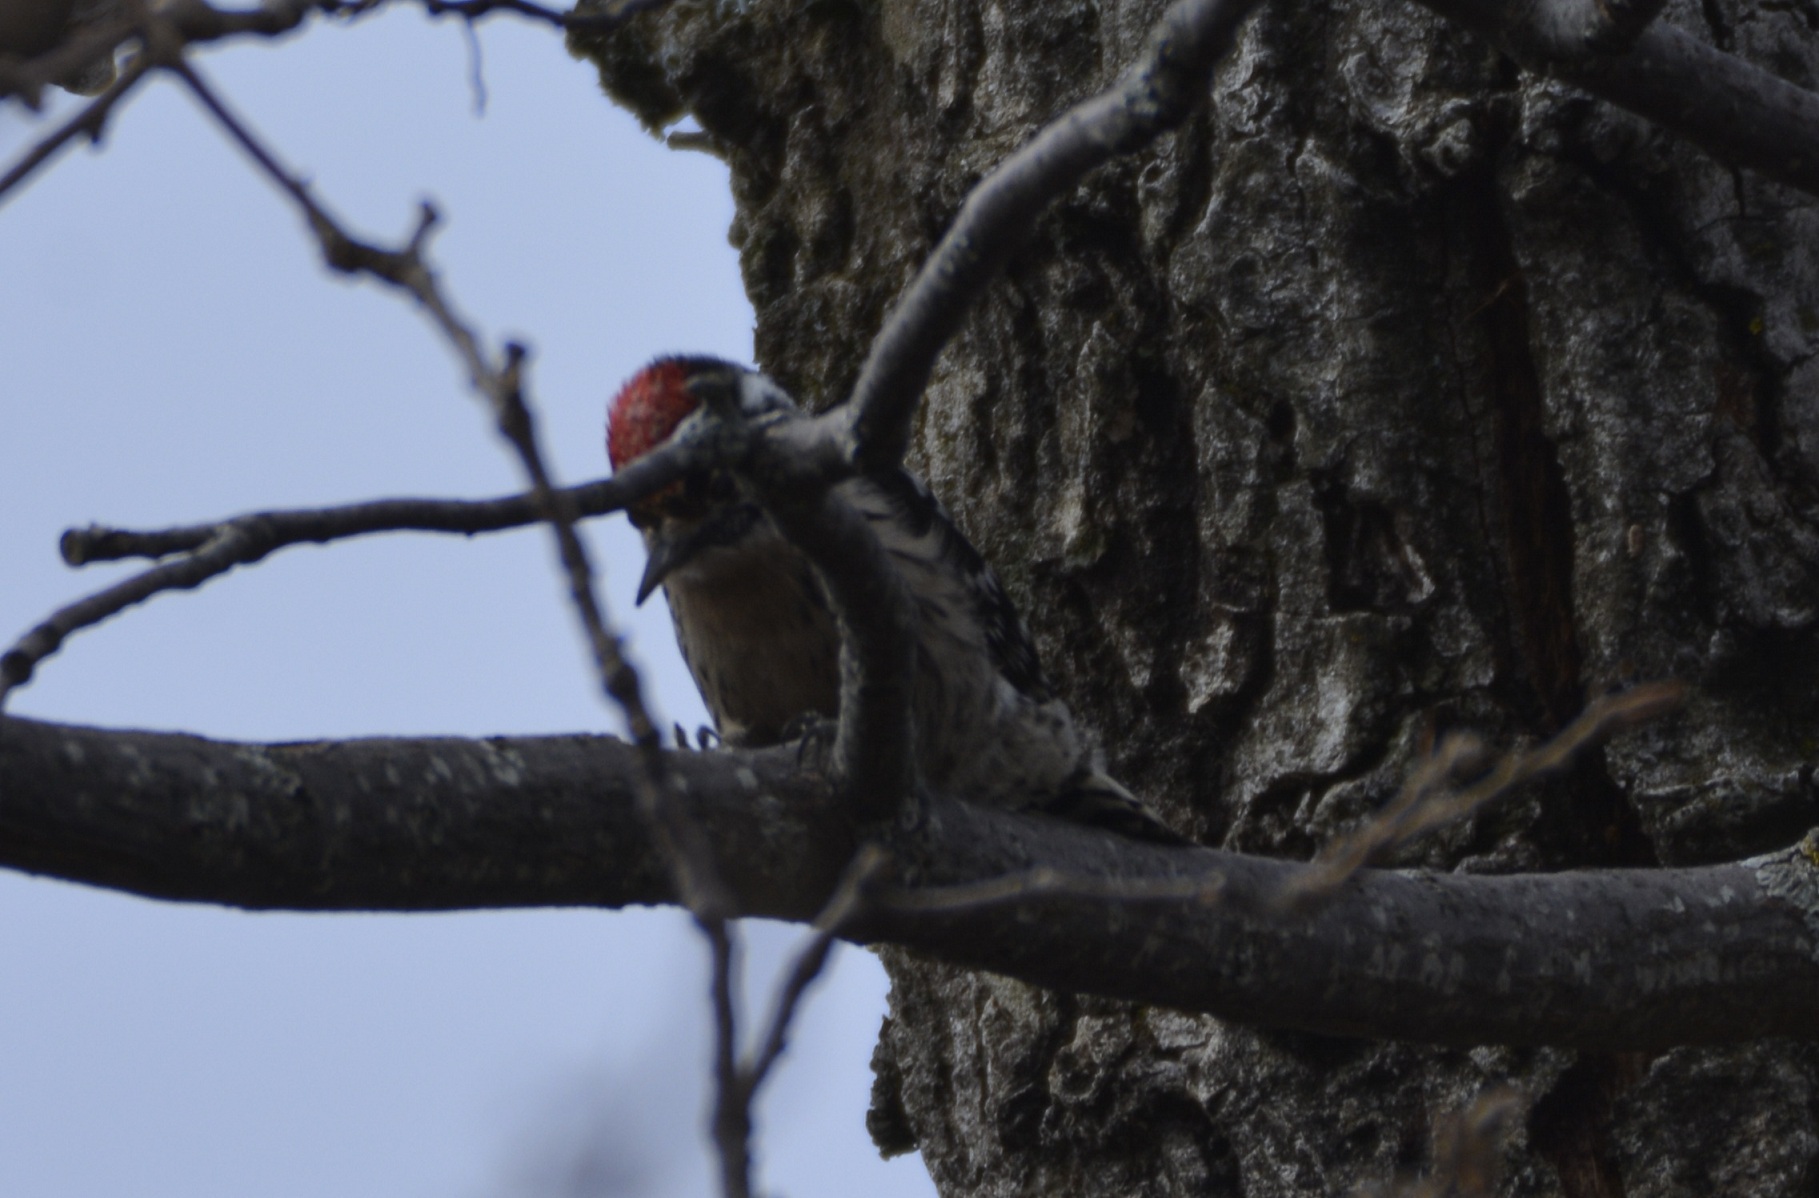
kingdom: Animalia
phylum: Chordata
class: Aves
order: Piciformes
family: Picidae
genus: Dryobates
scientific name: Dryobates minor
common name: Lesser spotted woodpecker
